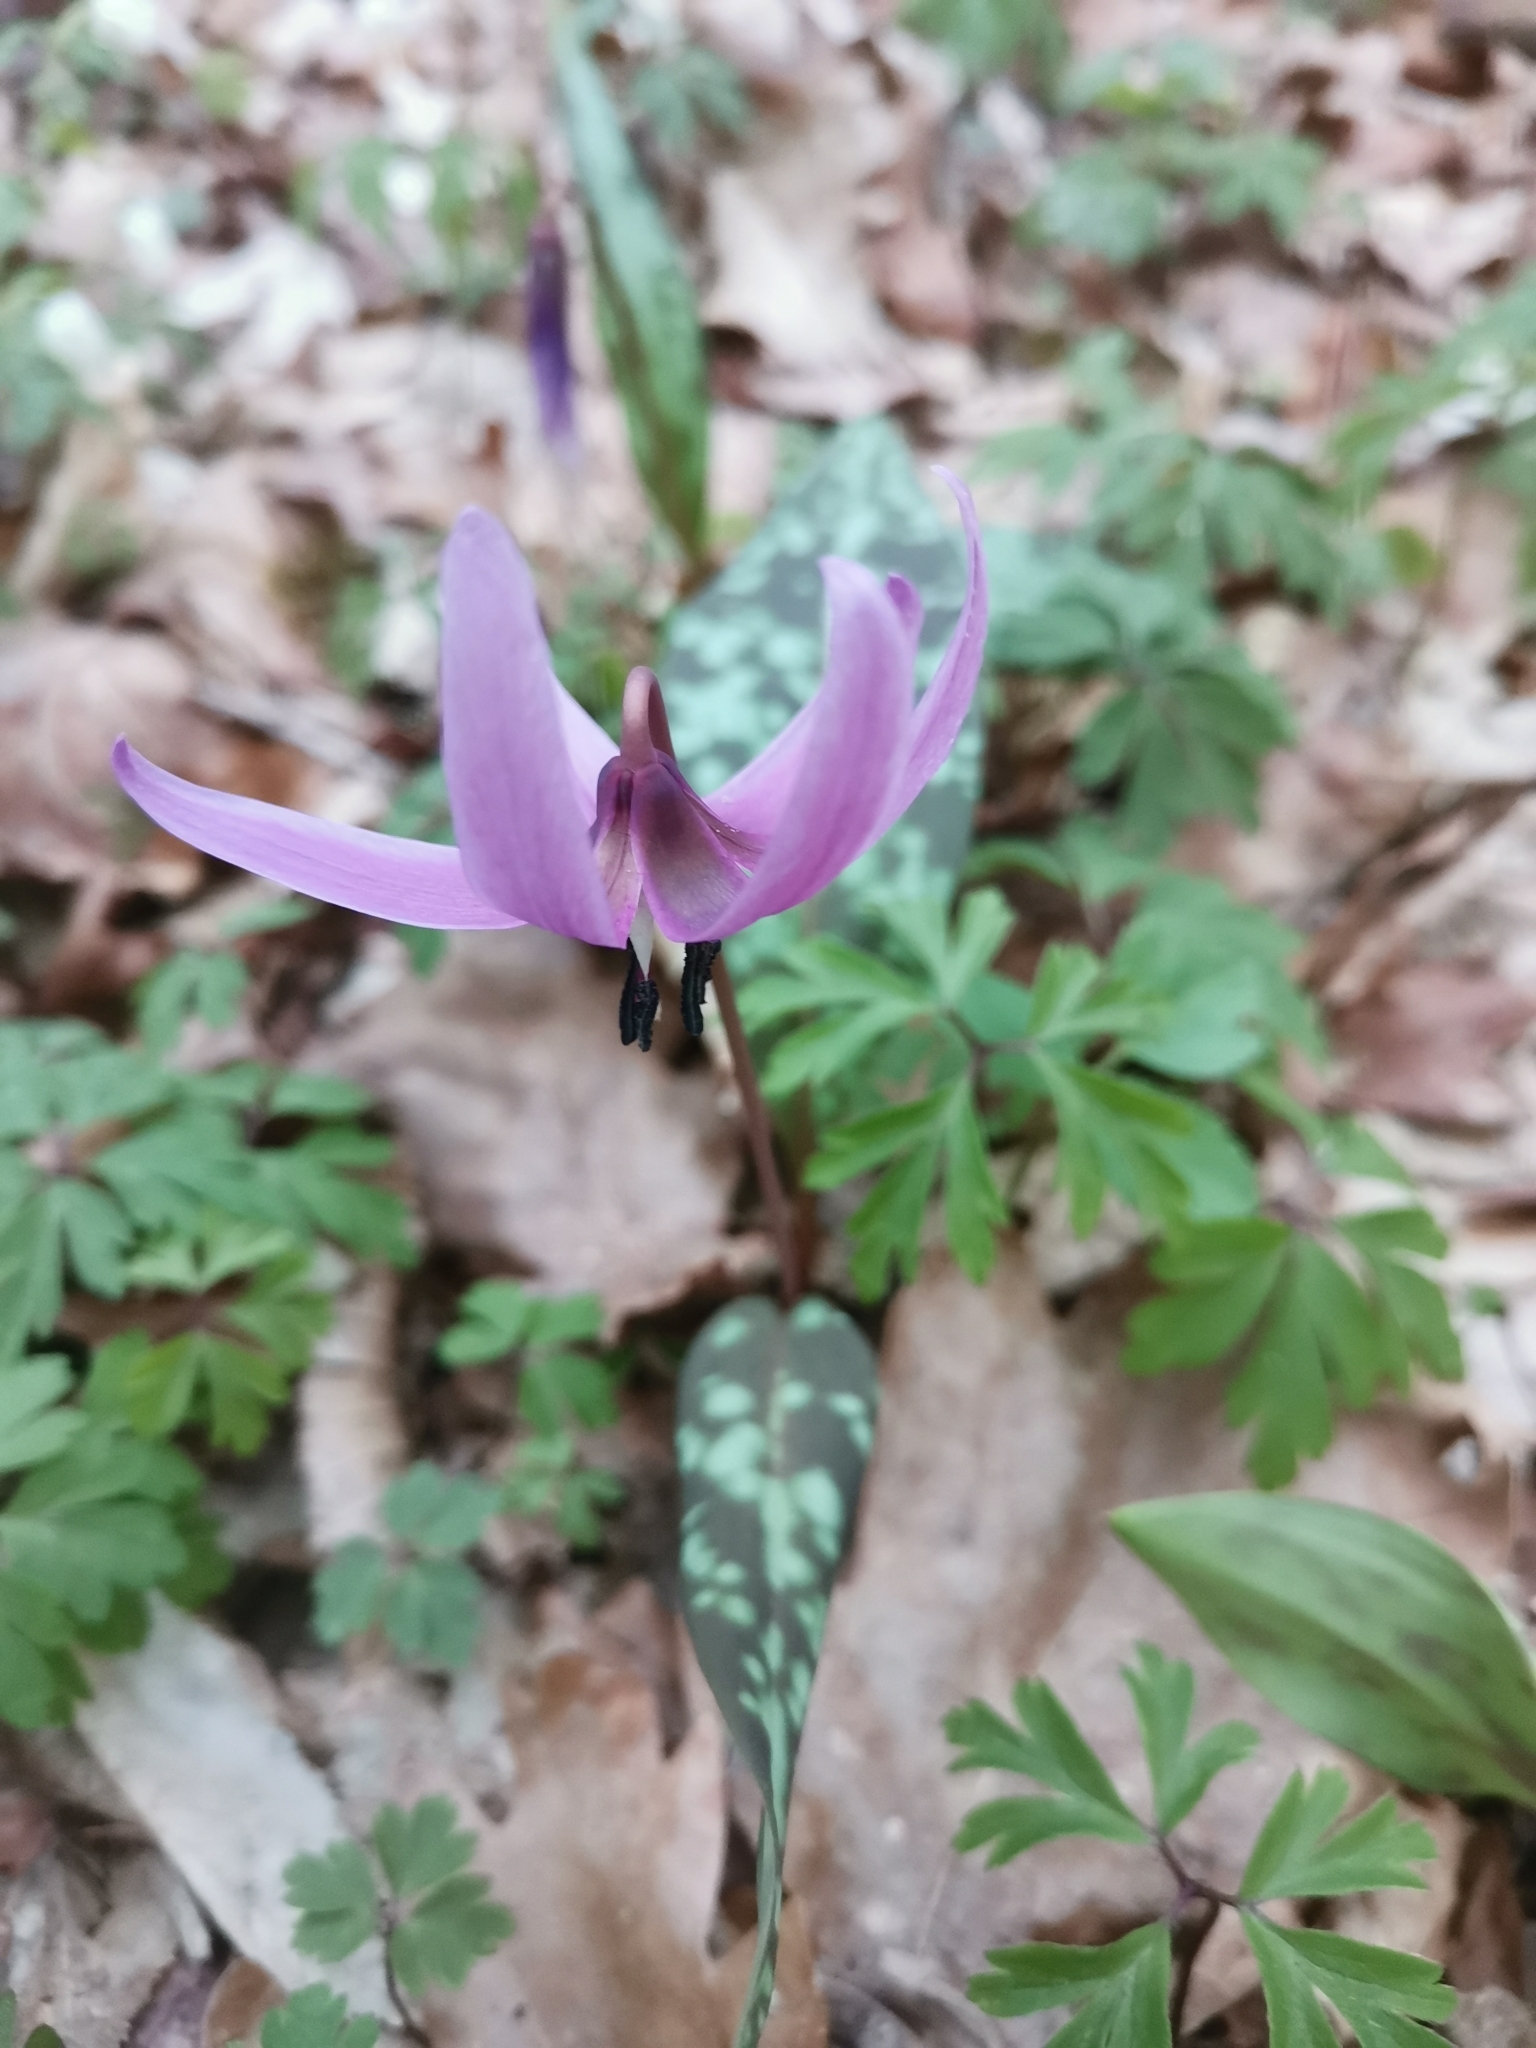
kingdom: Plantae
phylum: Tracheophyta
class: Liliopsida
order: Liliales
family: Liliaceae
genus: Erythronium
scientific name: Erythronium dens-canis
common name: Dog's-tooth-violet
